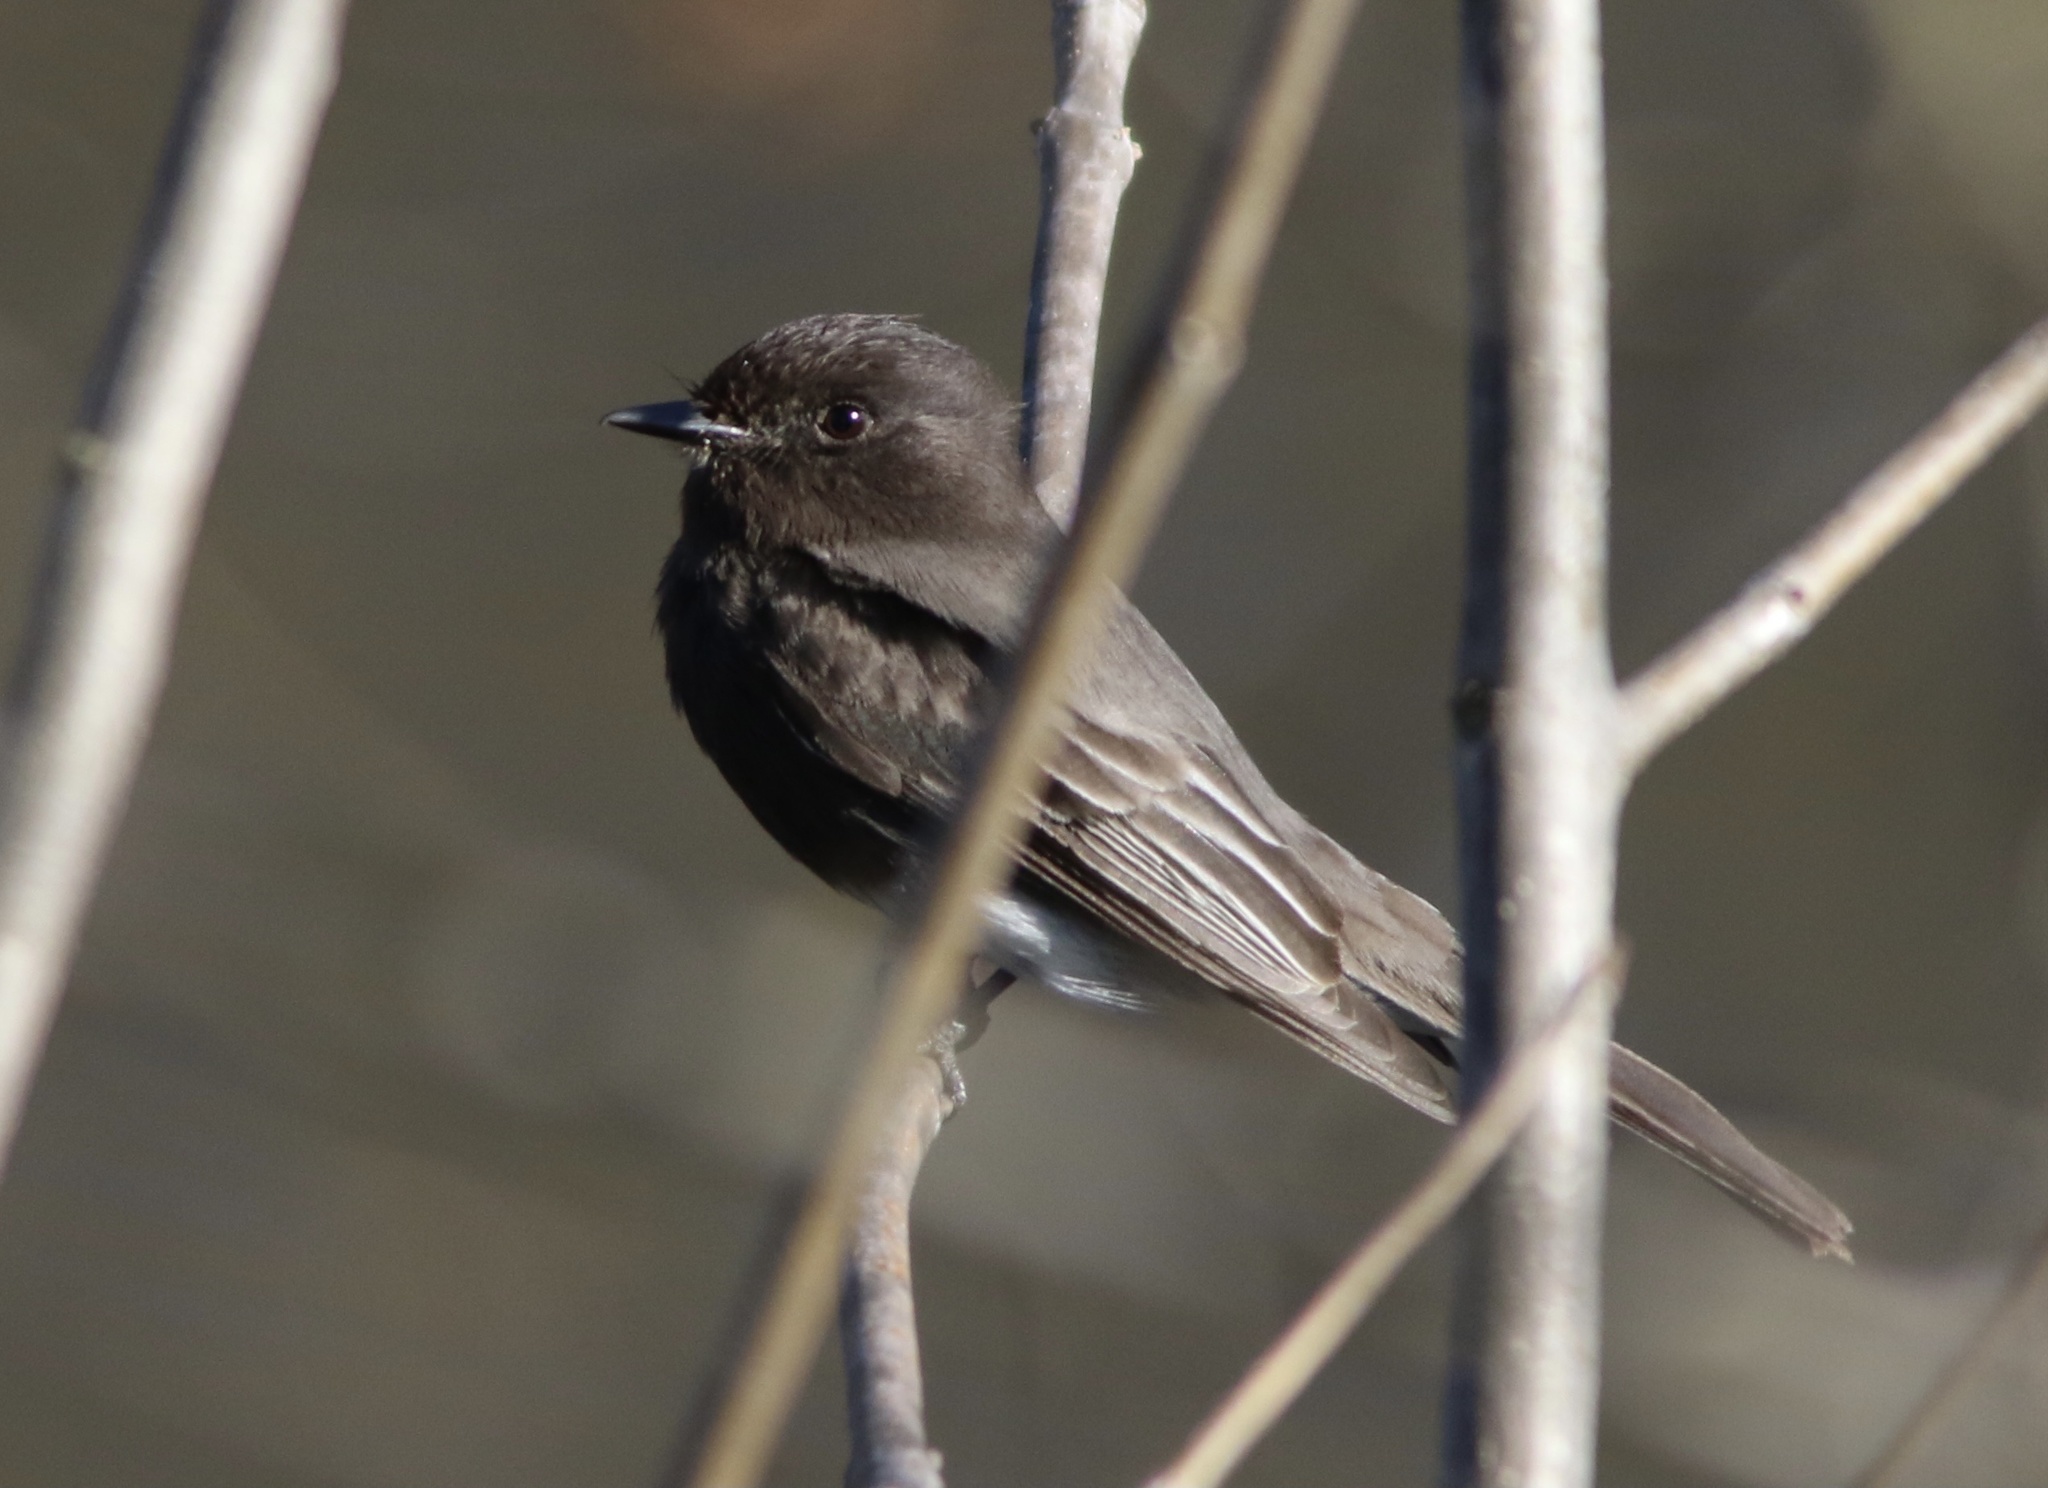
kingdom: Animalia
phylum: Chordata
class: Aves
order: Passeriformes
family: Tyrannidae
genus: Sayornis
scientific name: Sayornis nigricans
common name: Black phoebe
